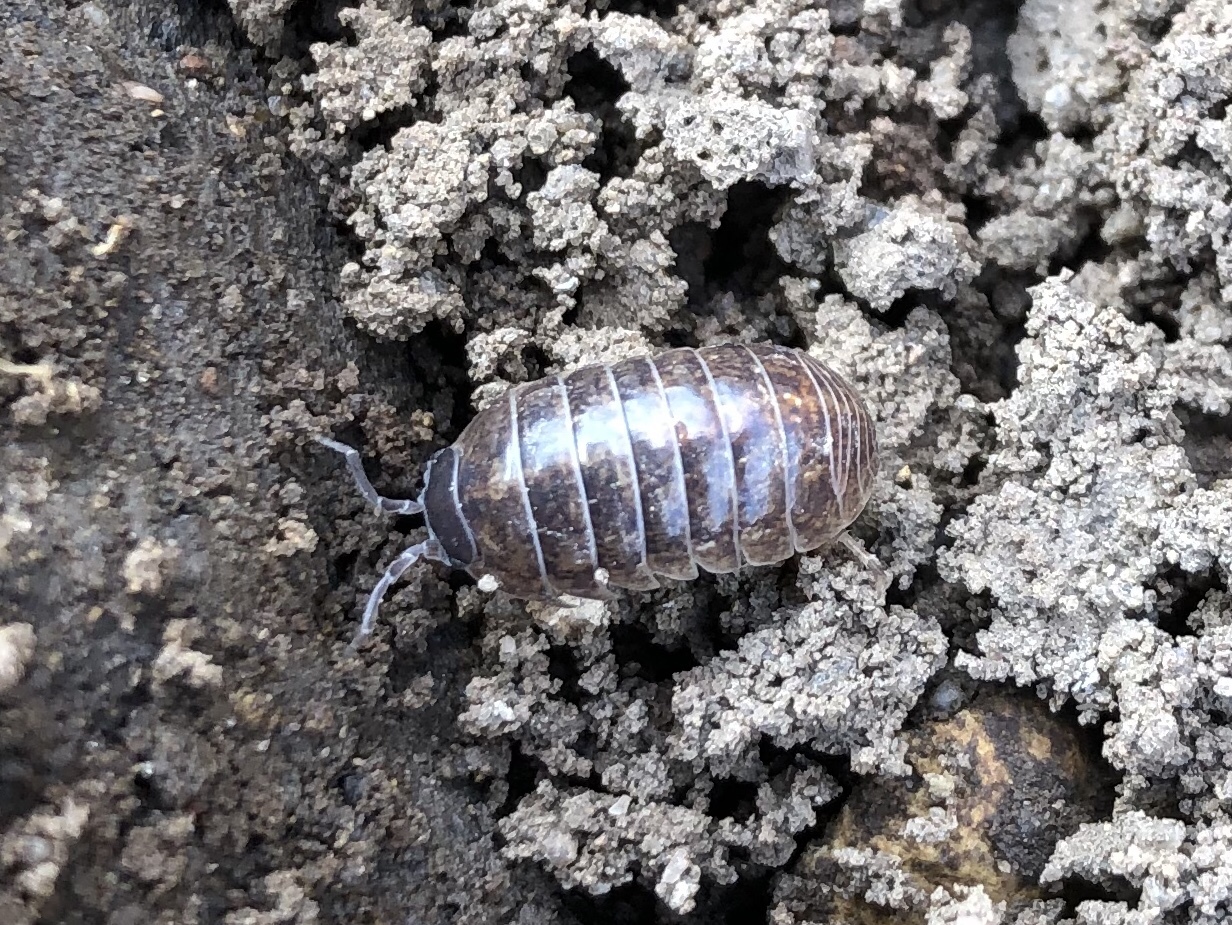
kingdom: Animalia
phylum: Arthropoda
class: Malacostraca
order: Isopoda
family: Armadillidiidae
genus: Armadillidium
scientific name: Armadillidium vulgare
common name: Common pill woodlouse
